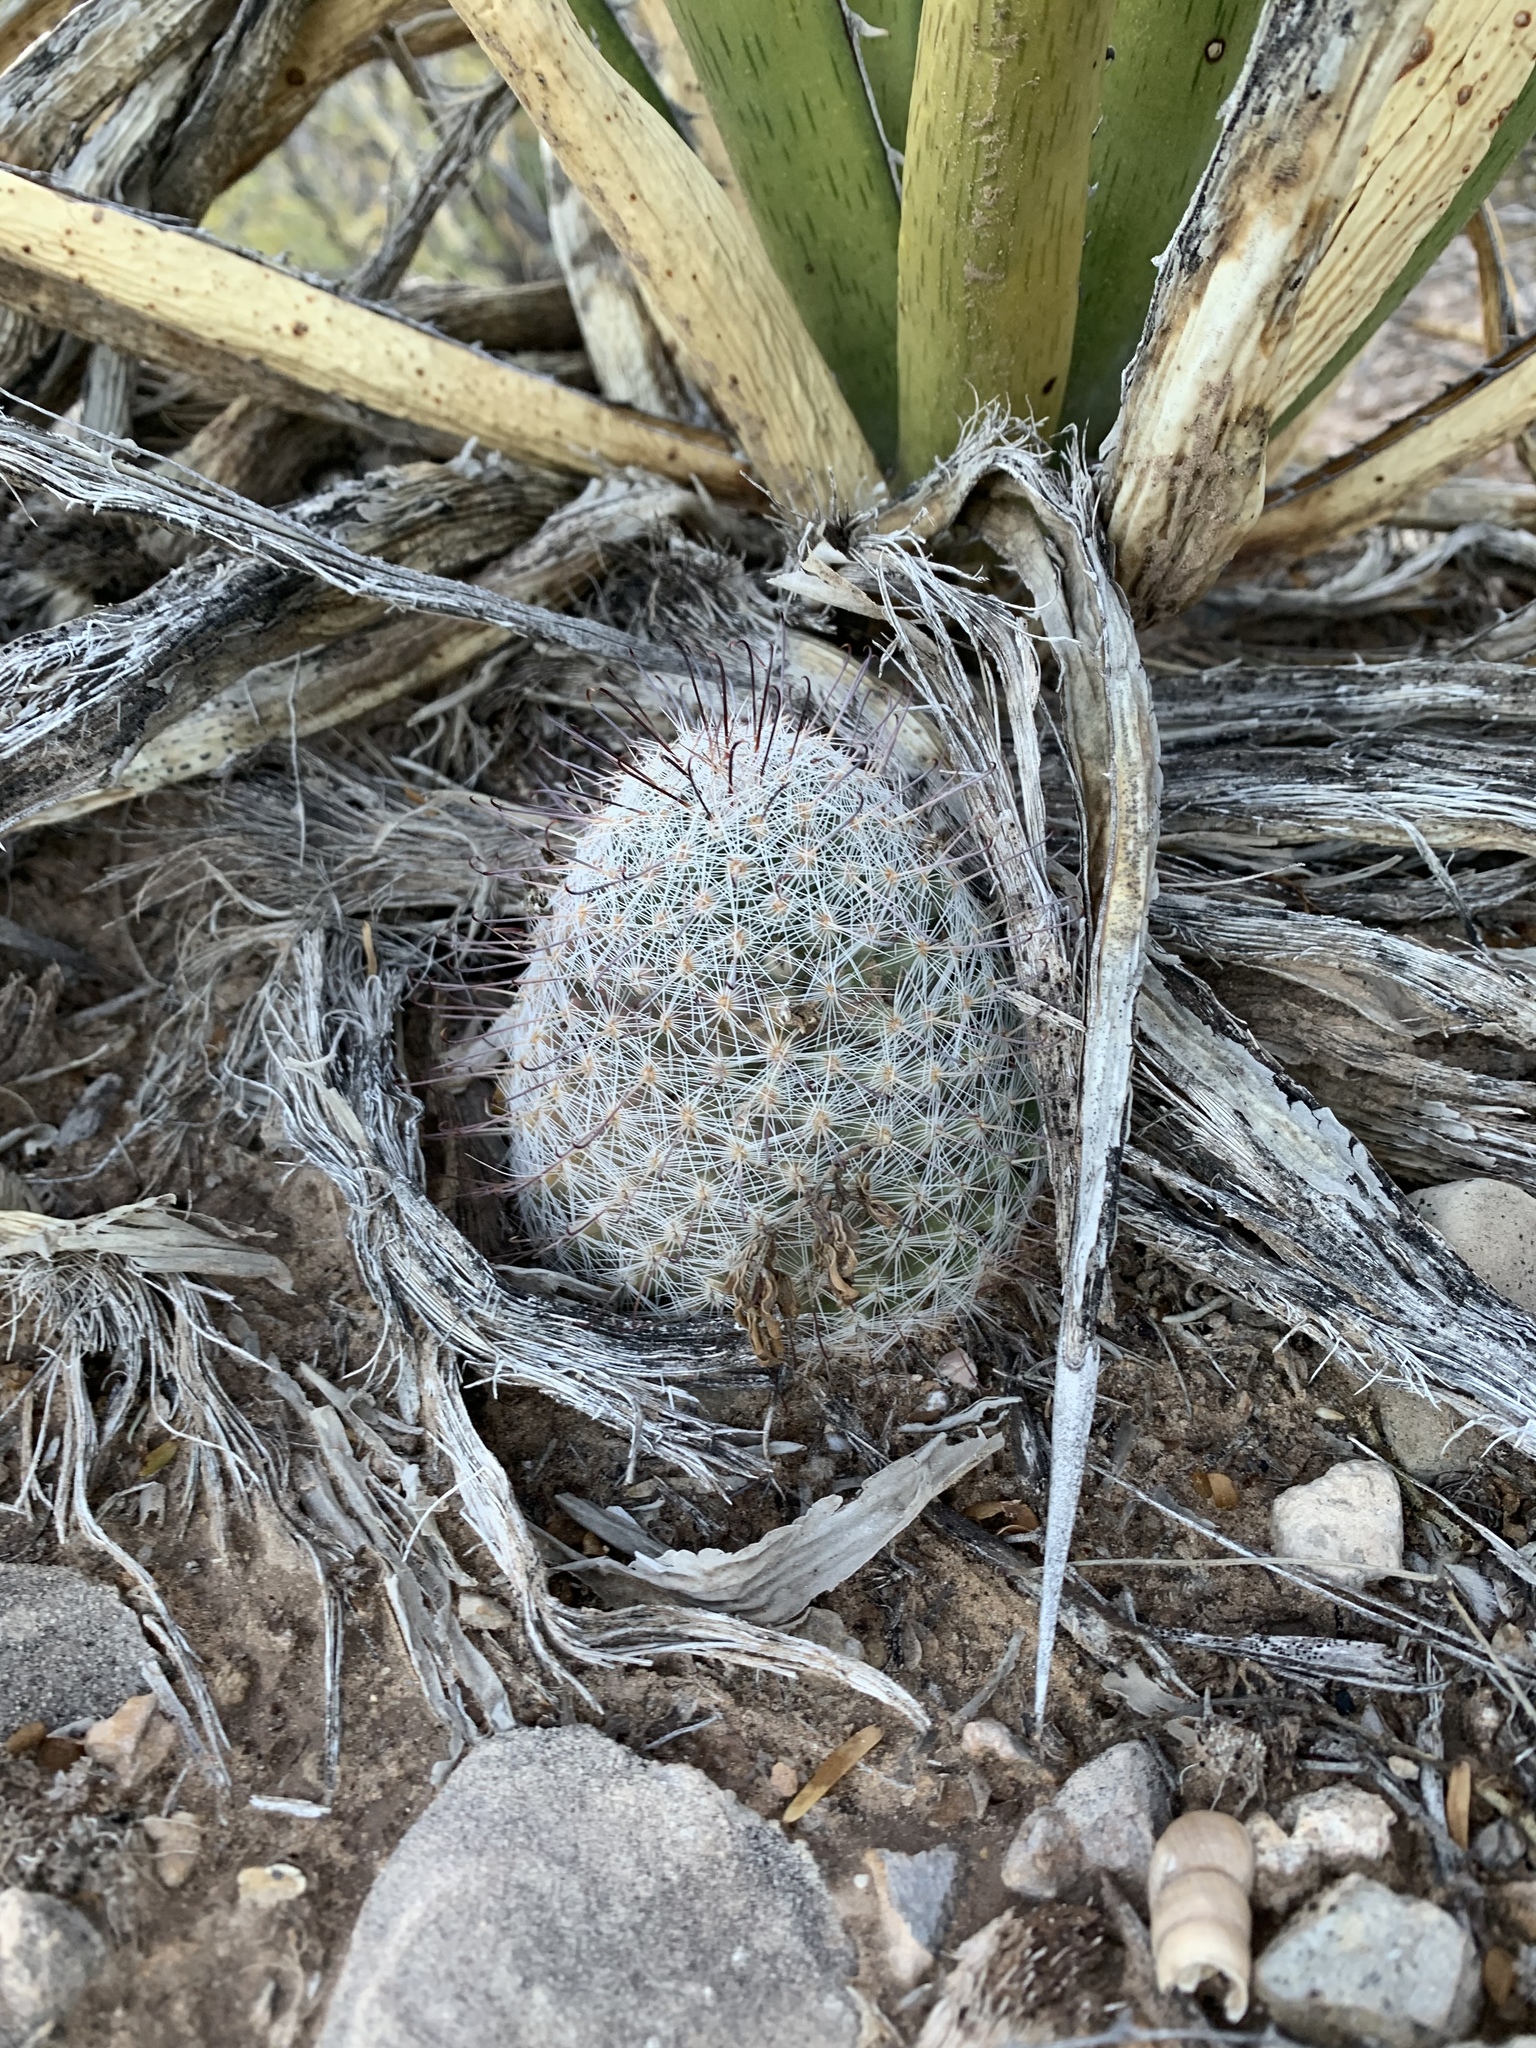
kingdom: Plantae
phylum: Tracheophyta
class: Magnoliopsida
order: Caryophyllales
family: Cactaceae
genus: Cochemiea
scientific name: Cochemiea grahamii
